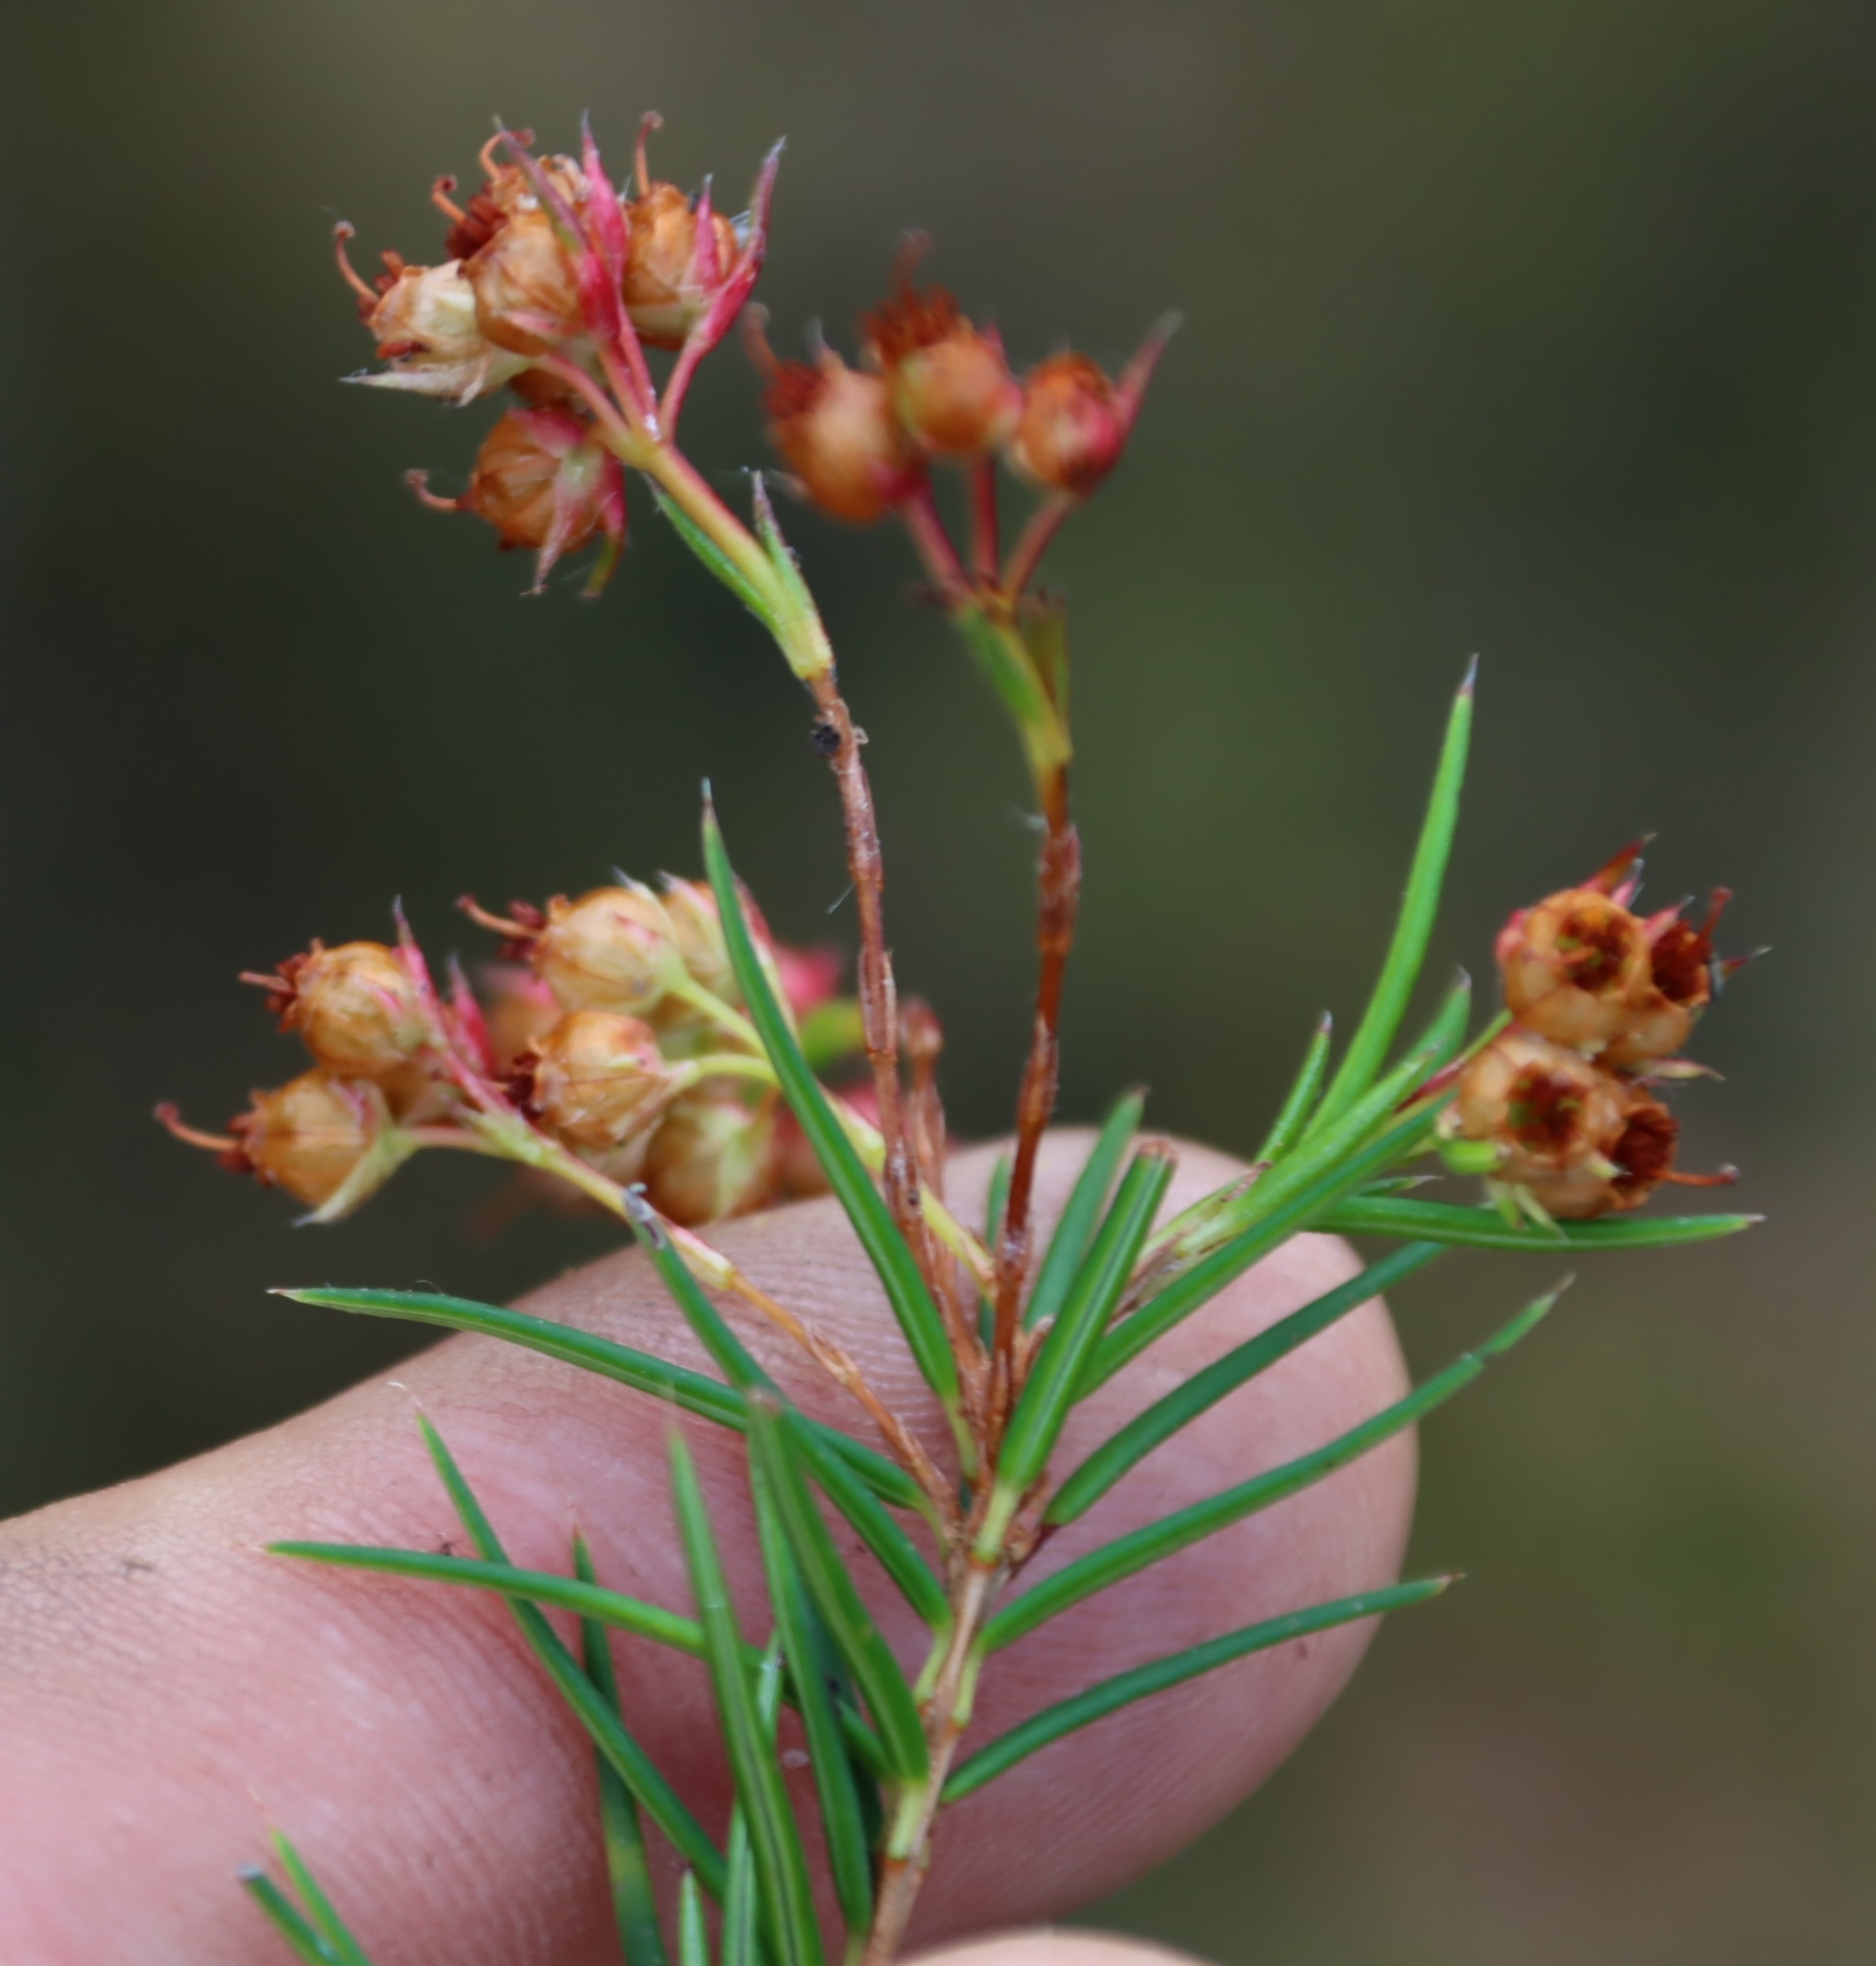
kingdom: Plantae
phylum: Tracheophyta
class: Magnoliopsida
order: Ericales
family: Ericaceae
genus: Erica
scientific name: Erica polifolia
